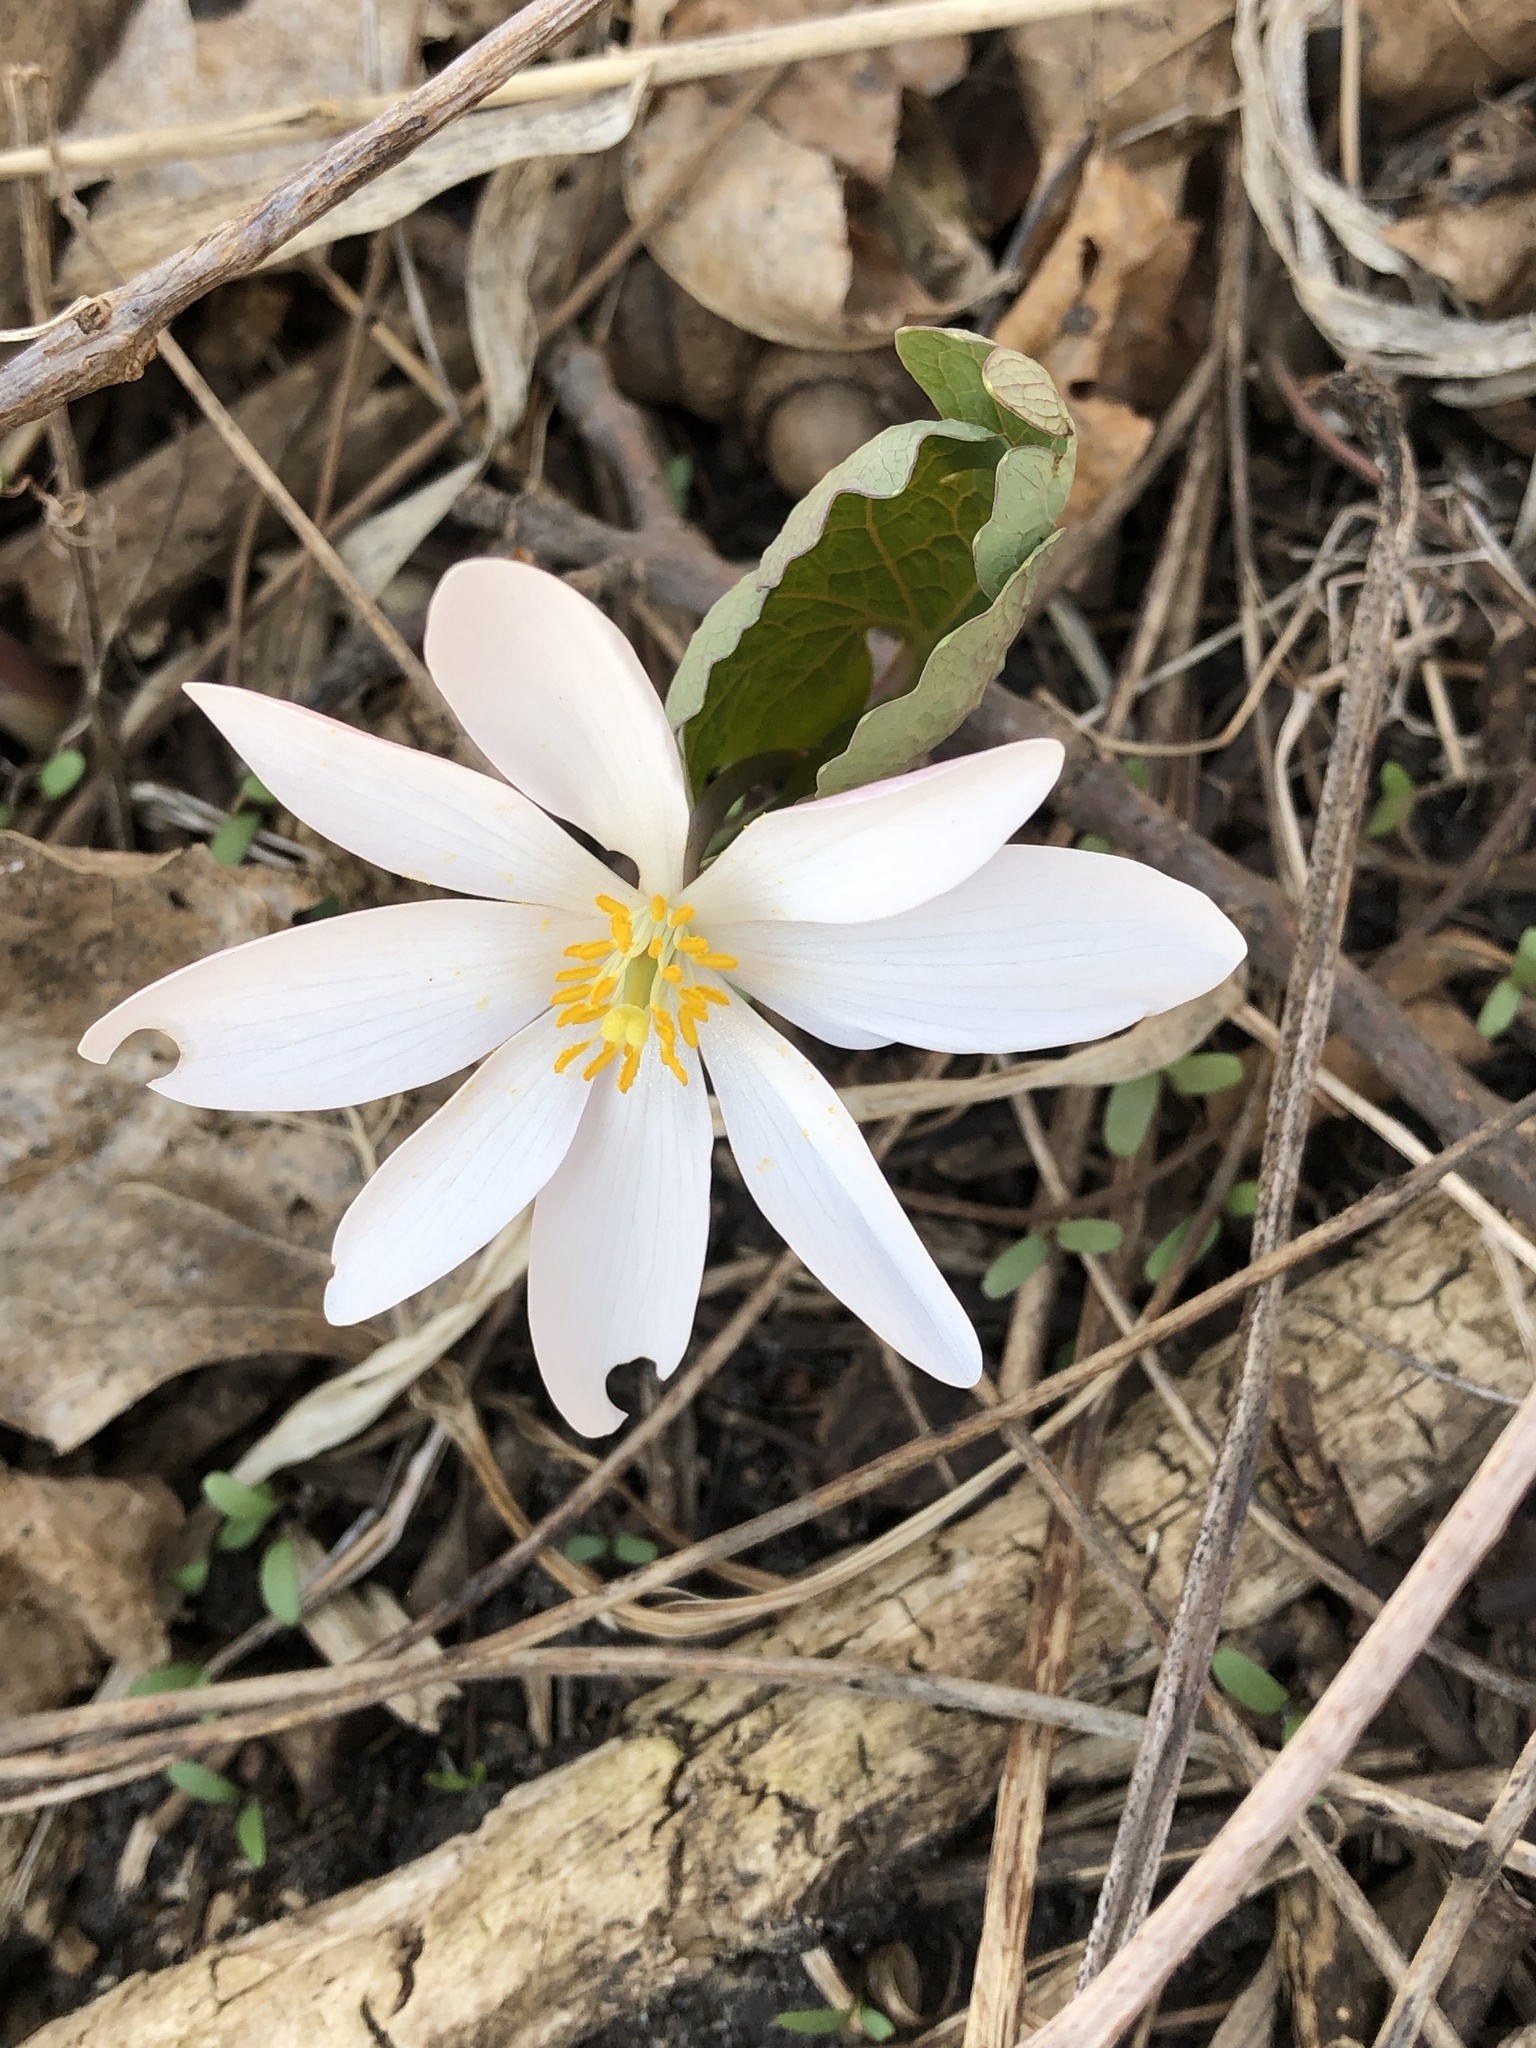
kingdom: Plantae
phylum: Tracheophyta
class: Magnoliopsida
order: Ranunculales
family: Papaveraceae
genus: Sanguinaria
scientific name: Sanguinaria canadensis
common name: Bloodroot
